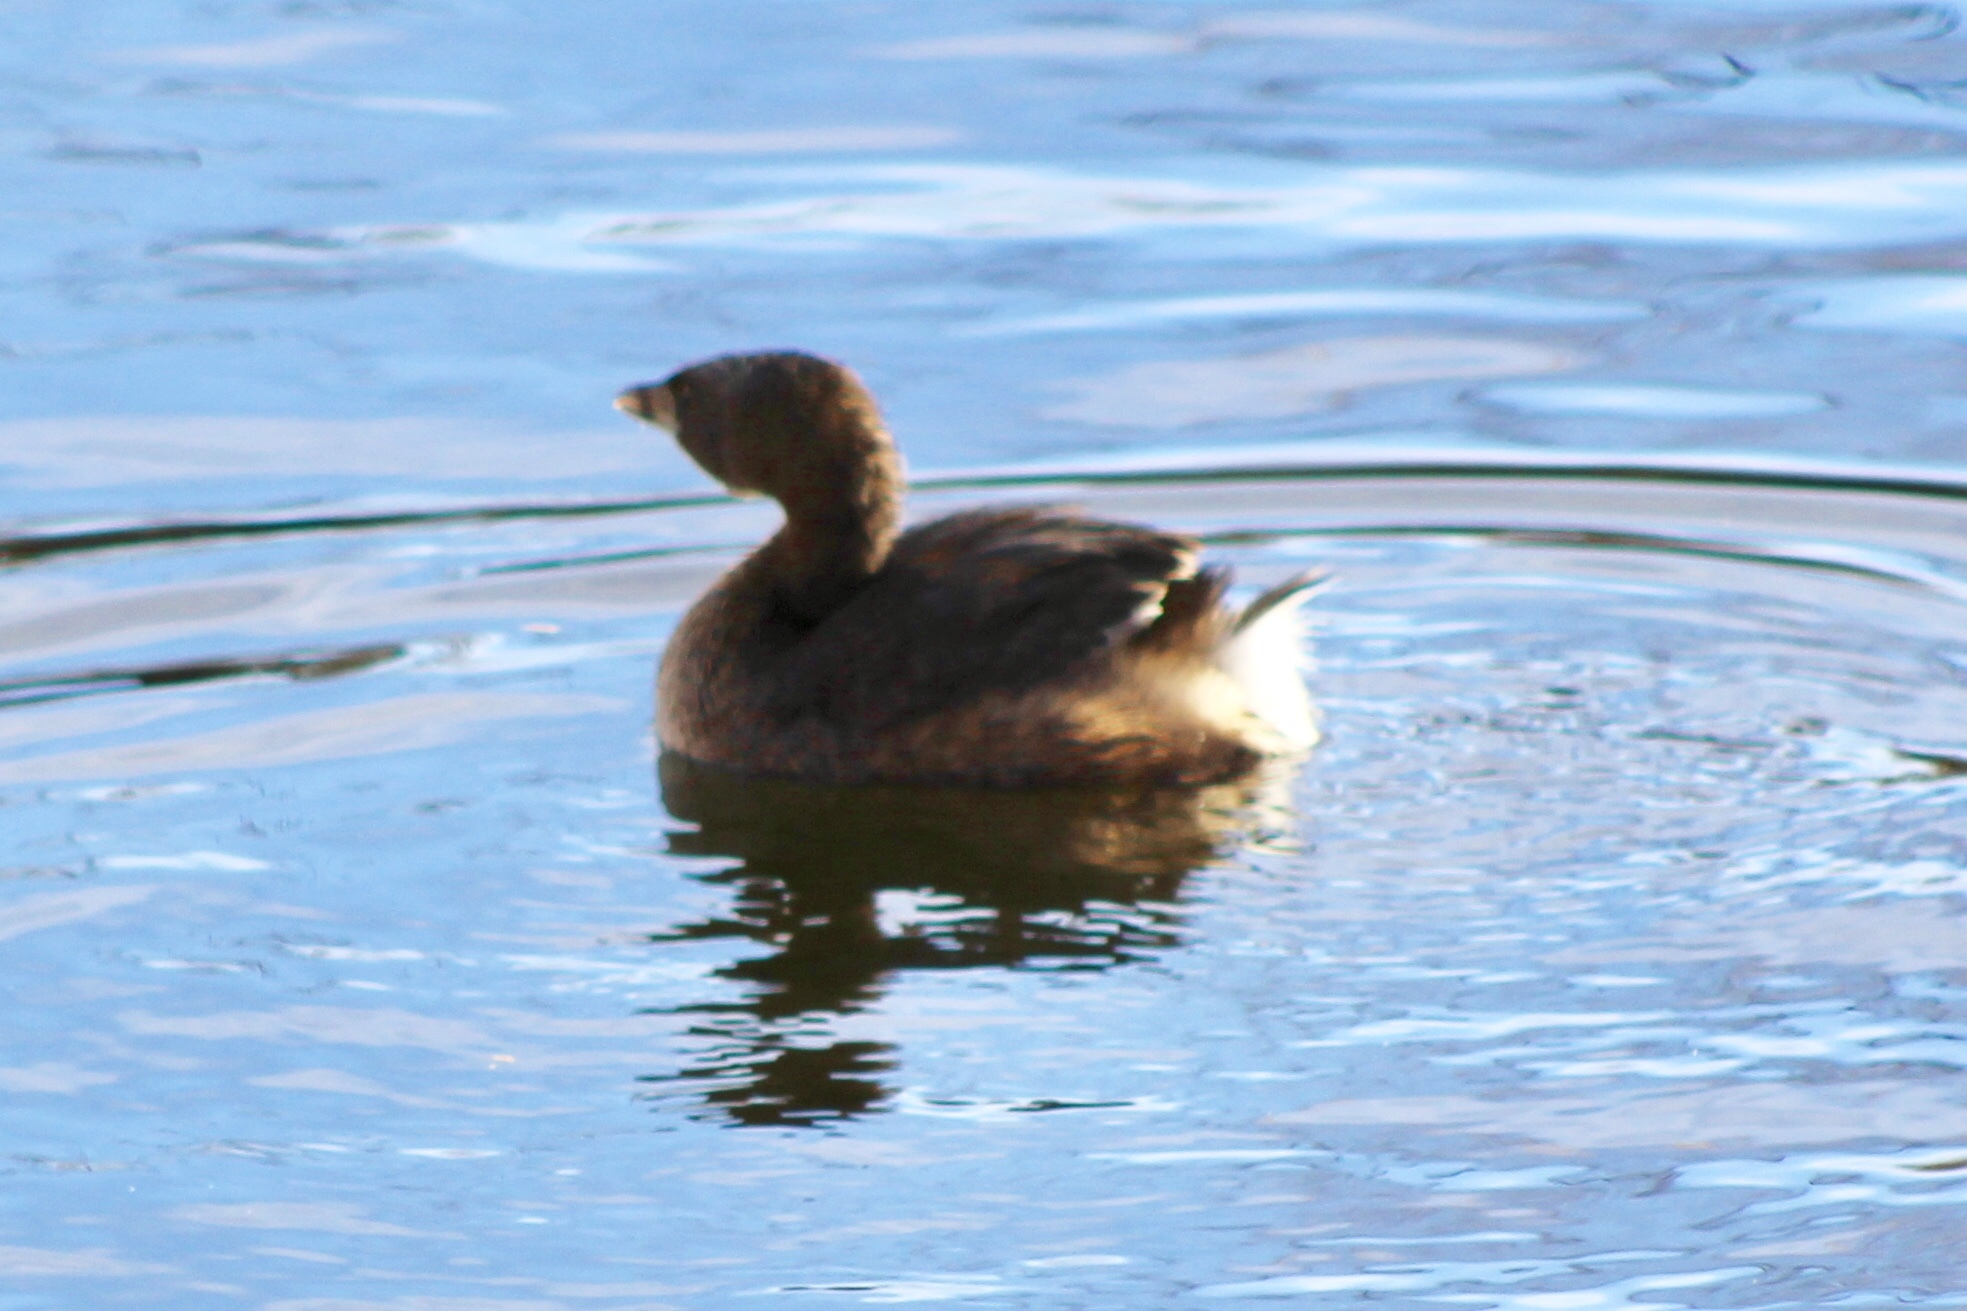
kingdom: Animalia
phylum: Chordata
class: Aves
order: Podicipediformes
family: Podicipedidae
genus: Podilymbus
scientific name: Podilymbus podiceps
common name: Pied-billed grebe
